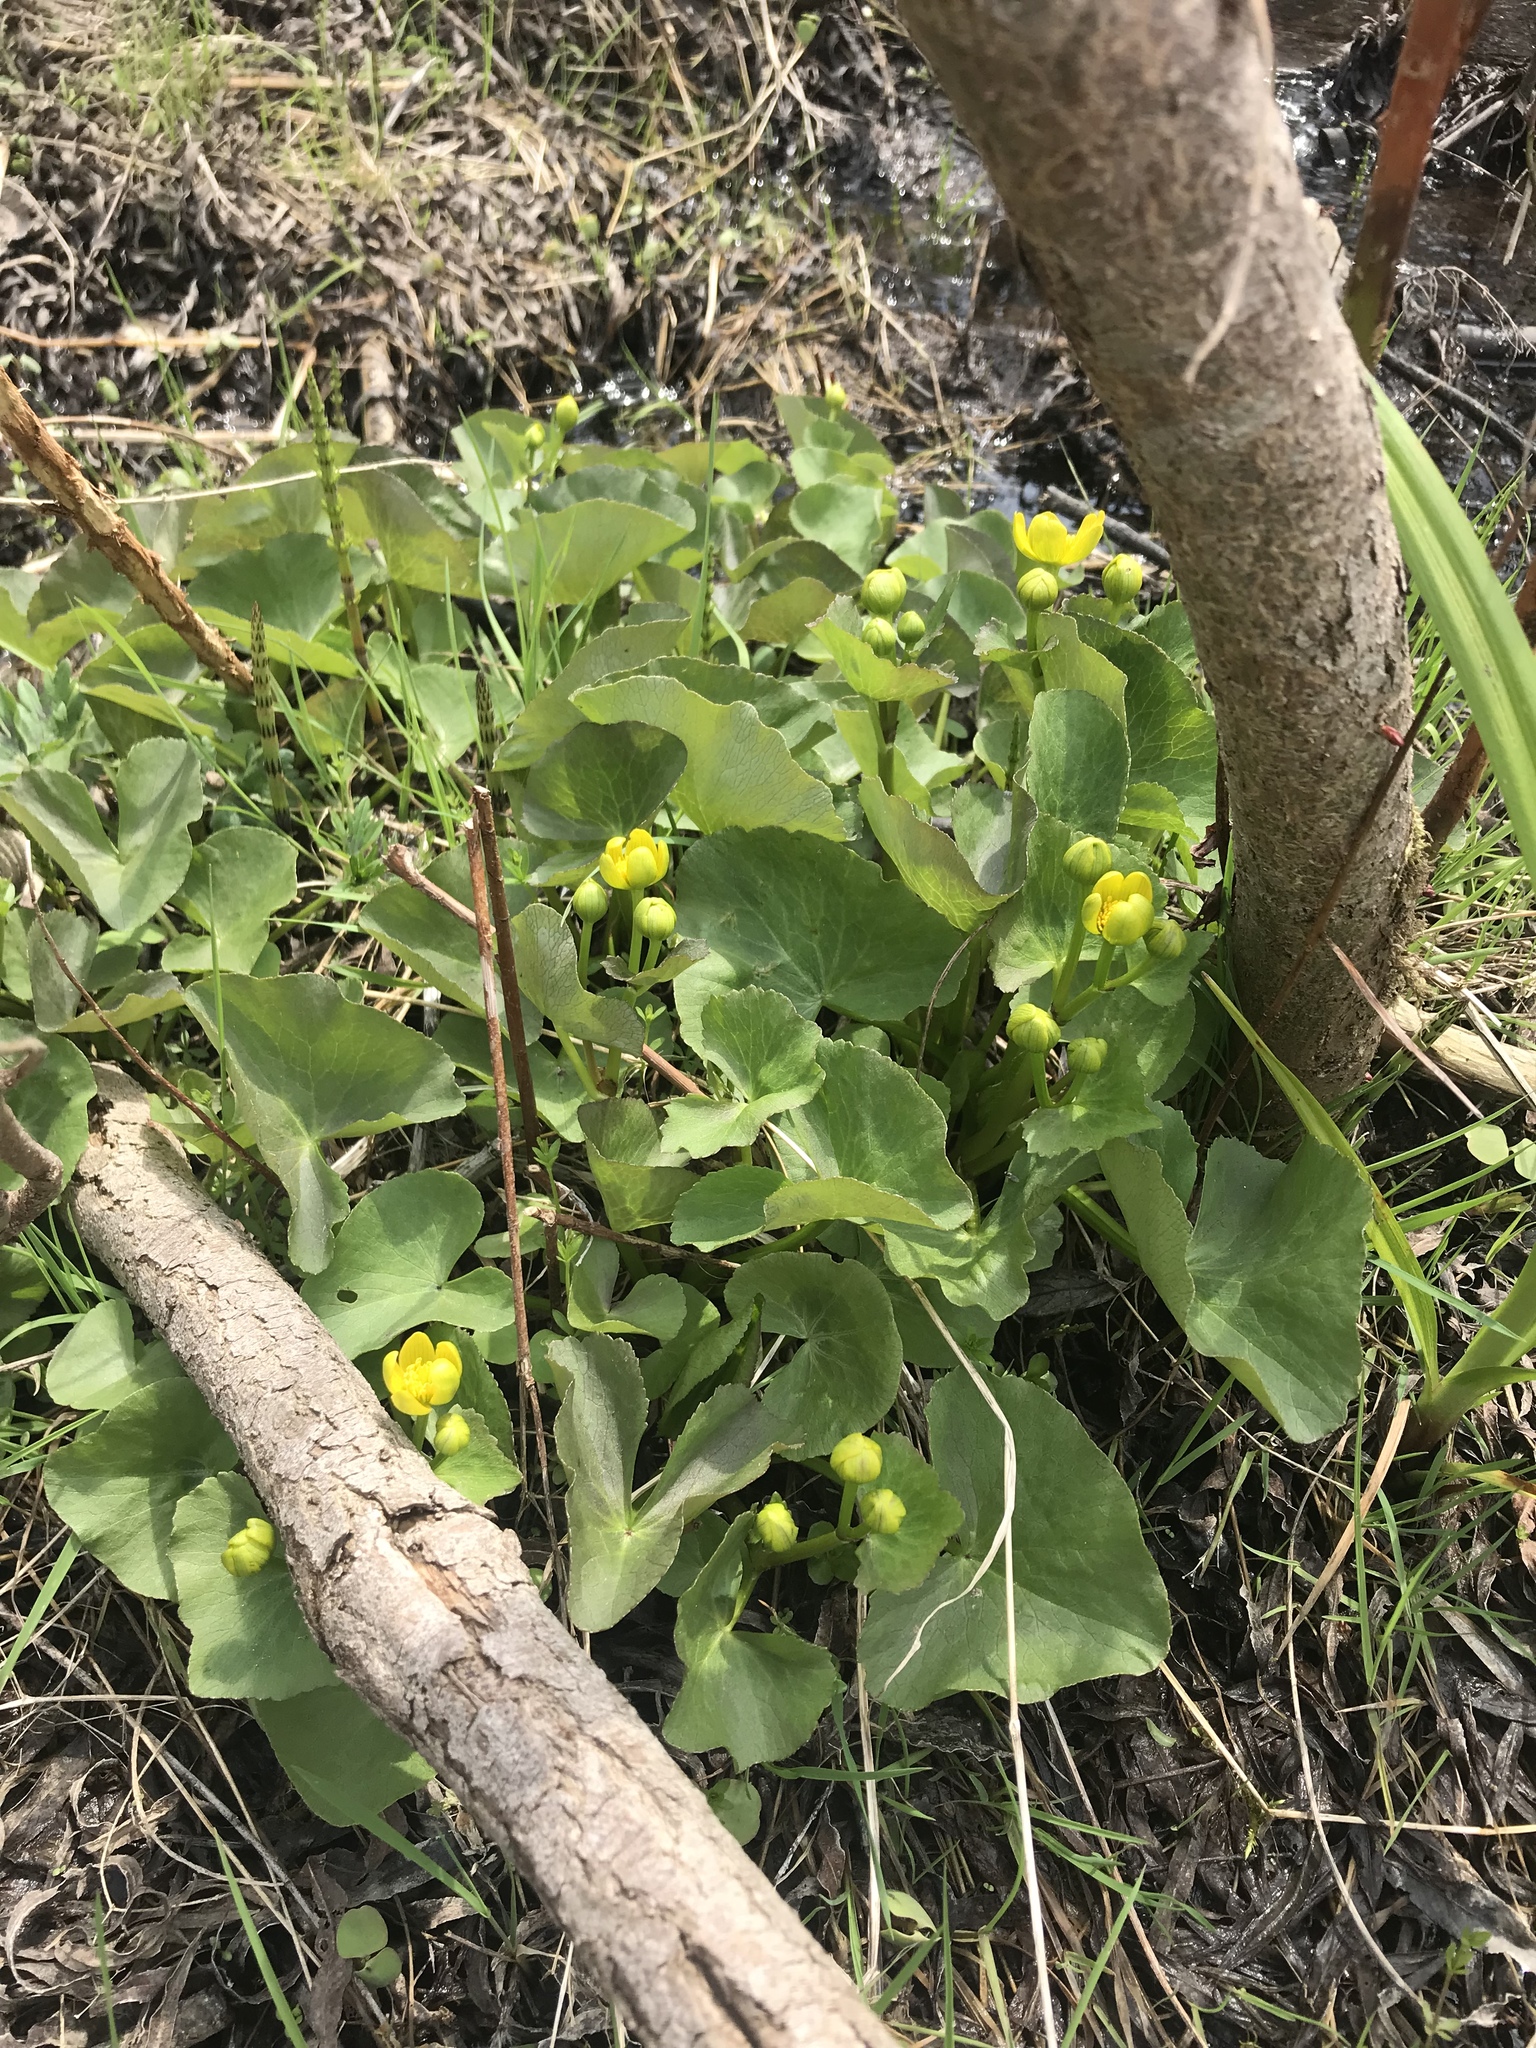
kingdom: Plantae
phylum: Tracheophyta
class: Magnoliopsida
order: Ranunculales
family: Ranunculaceae
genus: Caltha
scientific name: Caltha palustris
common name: Marsh marigold
